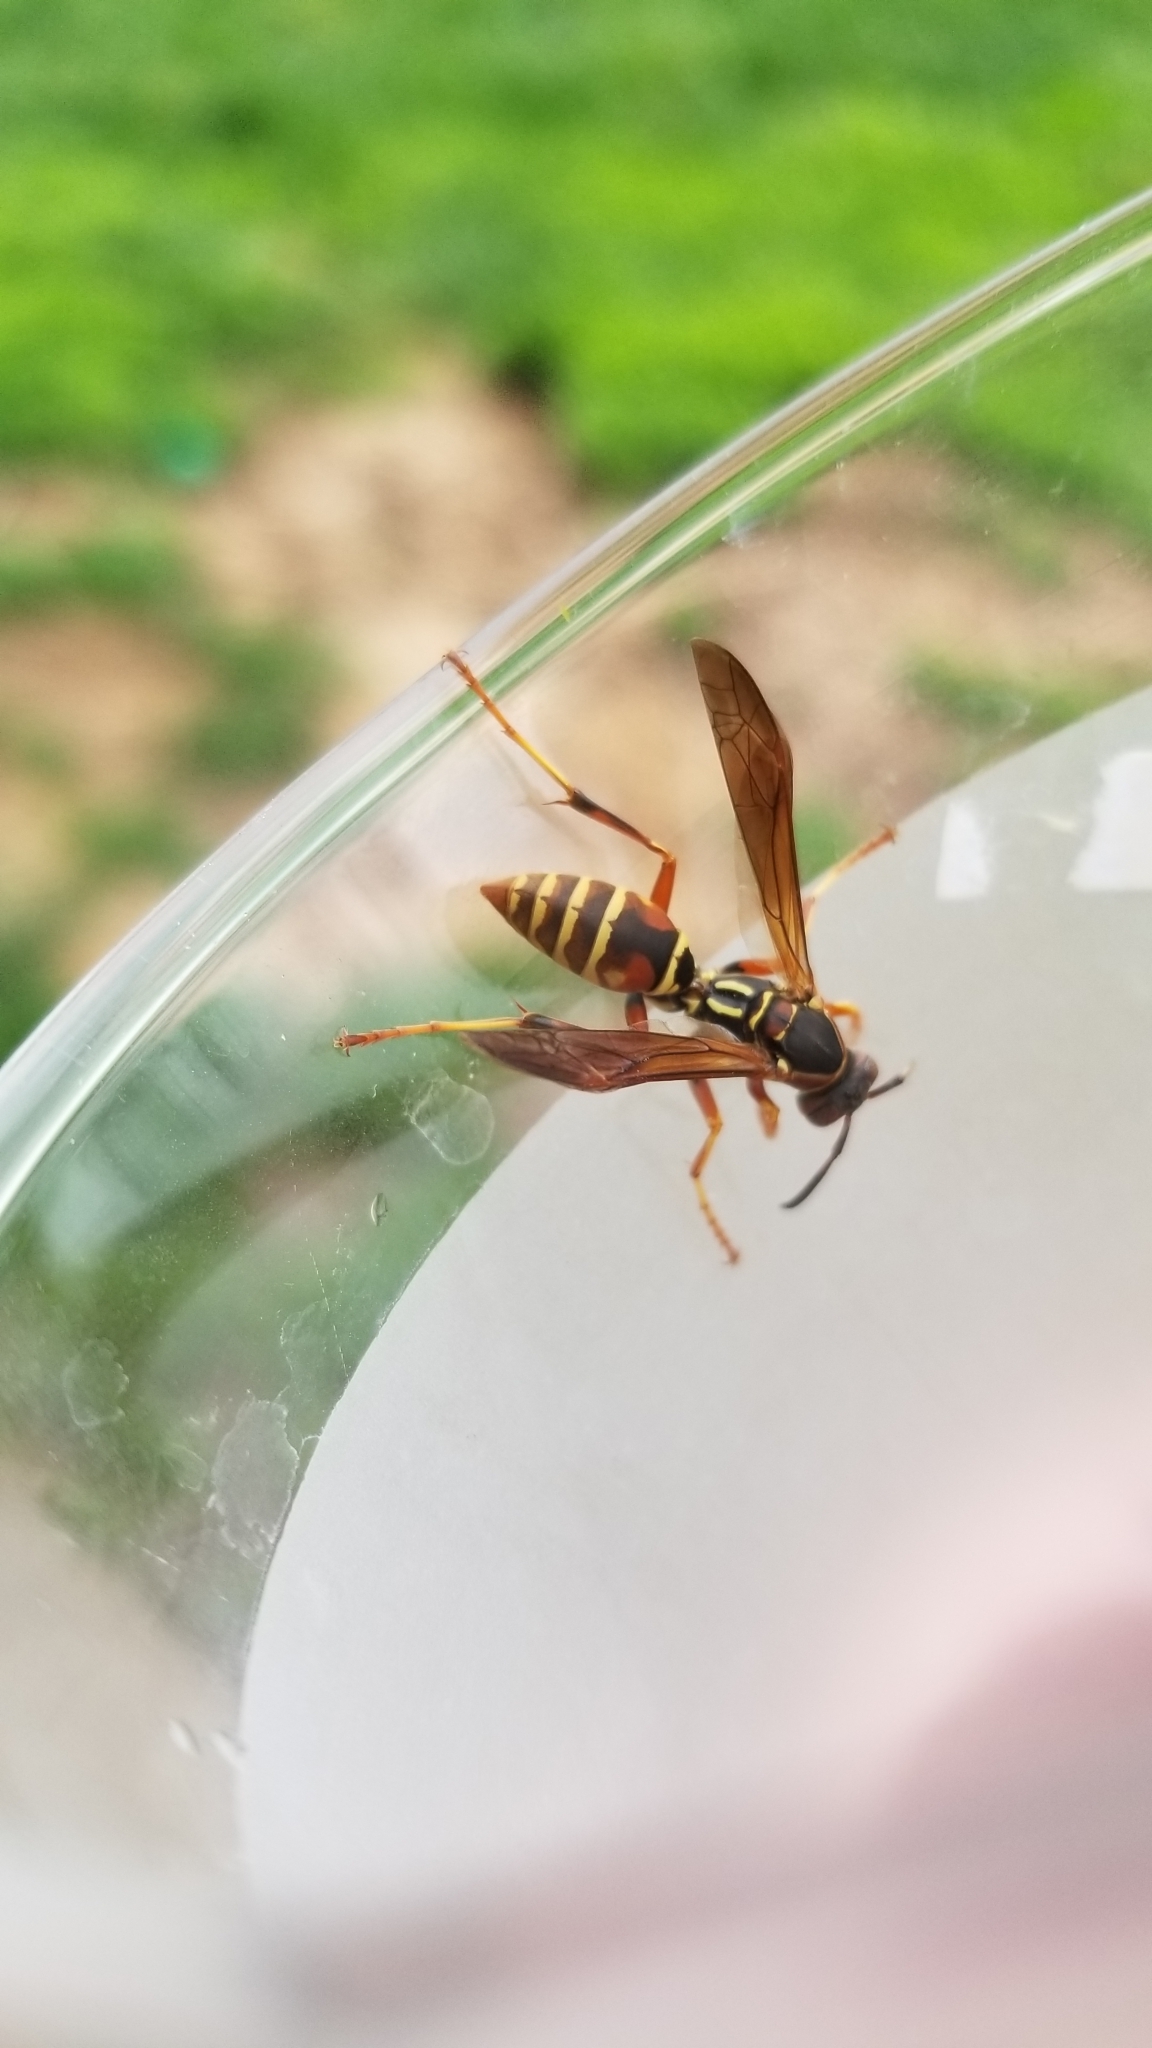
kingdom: Animalia
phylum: Arthropoda
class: Insecta
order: Hymenoptera
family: Eumenidae
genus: Polistes
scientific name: Polistes fuscatus
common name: Dark paper wasp
